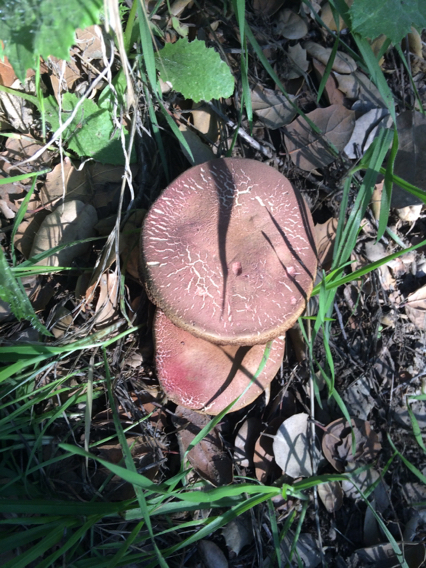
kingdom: Fungi
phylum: Basidiomycota
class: Agaricomycetes
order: Boletales
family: Boletaceae
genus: Xerocomellus
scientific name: Xerocomellus dryophilus
